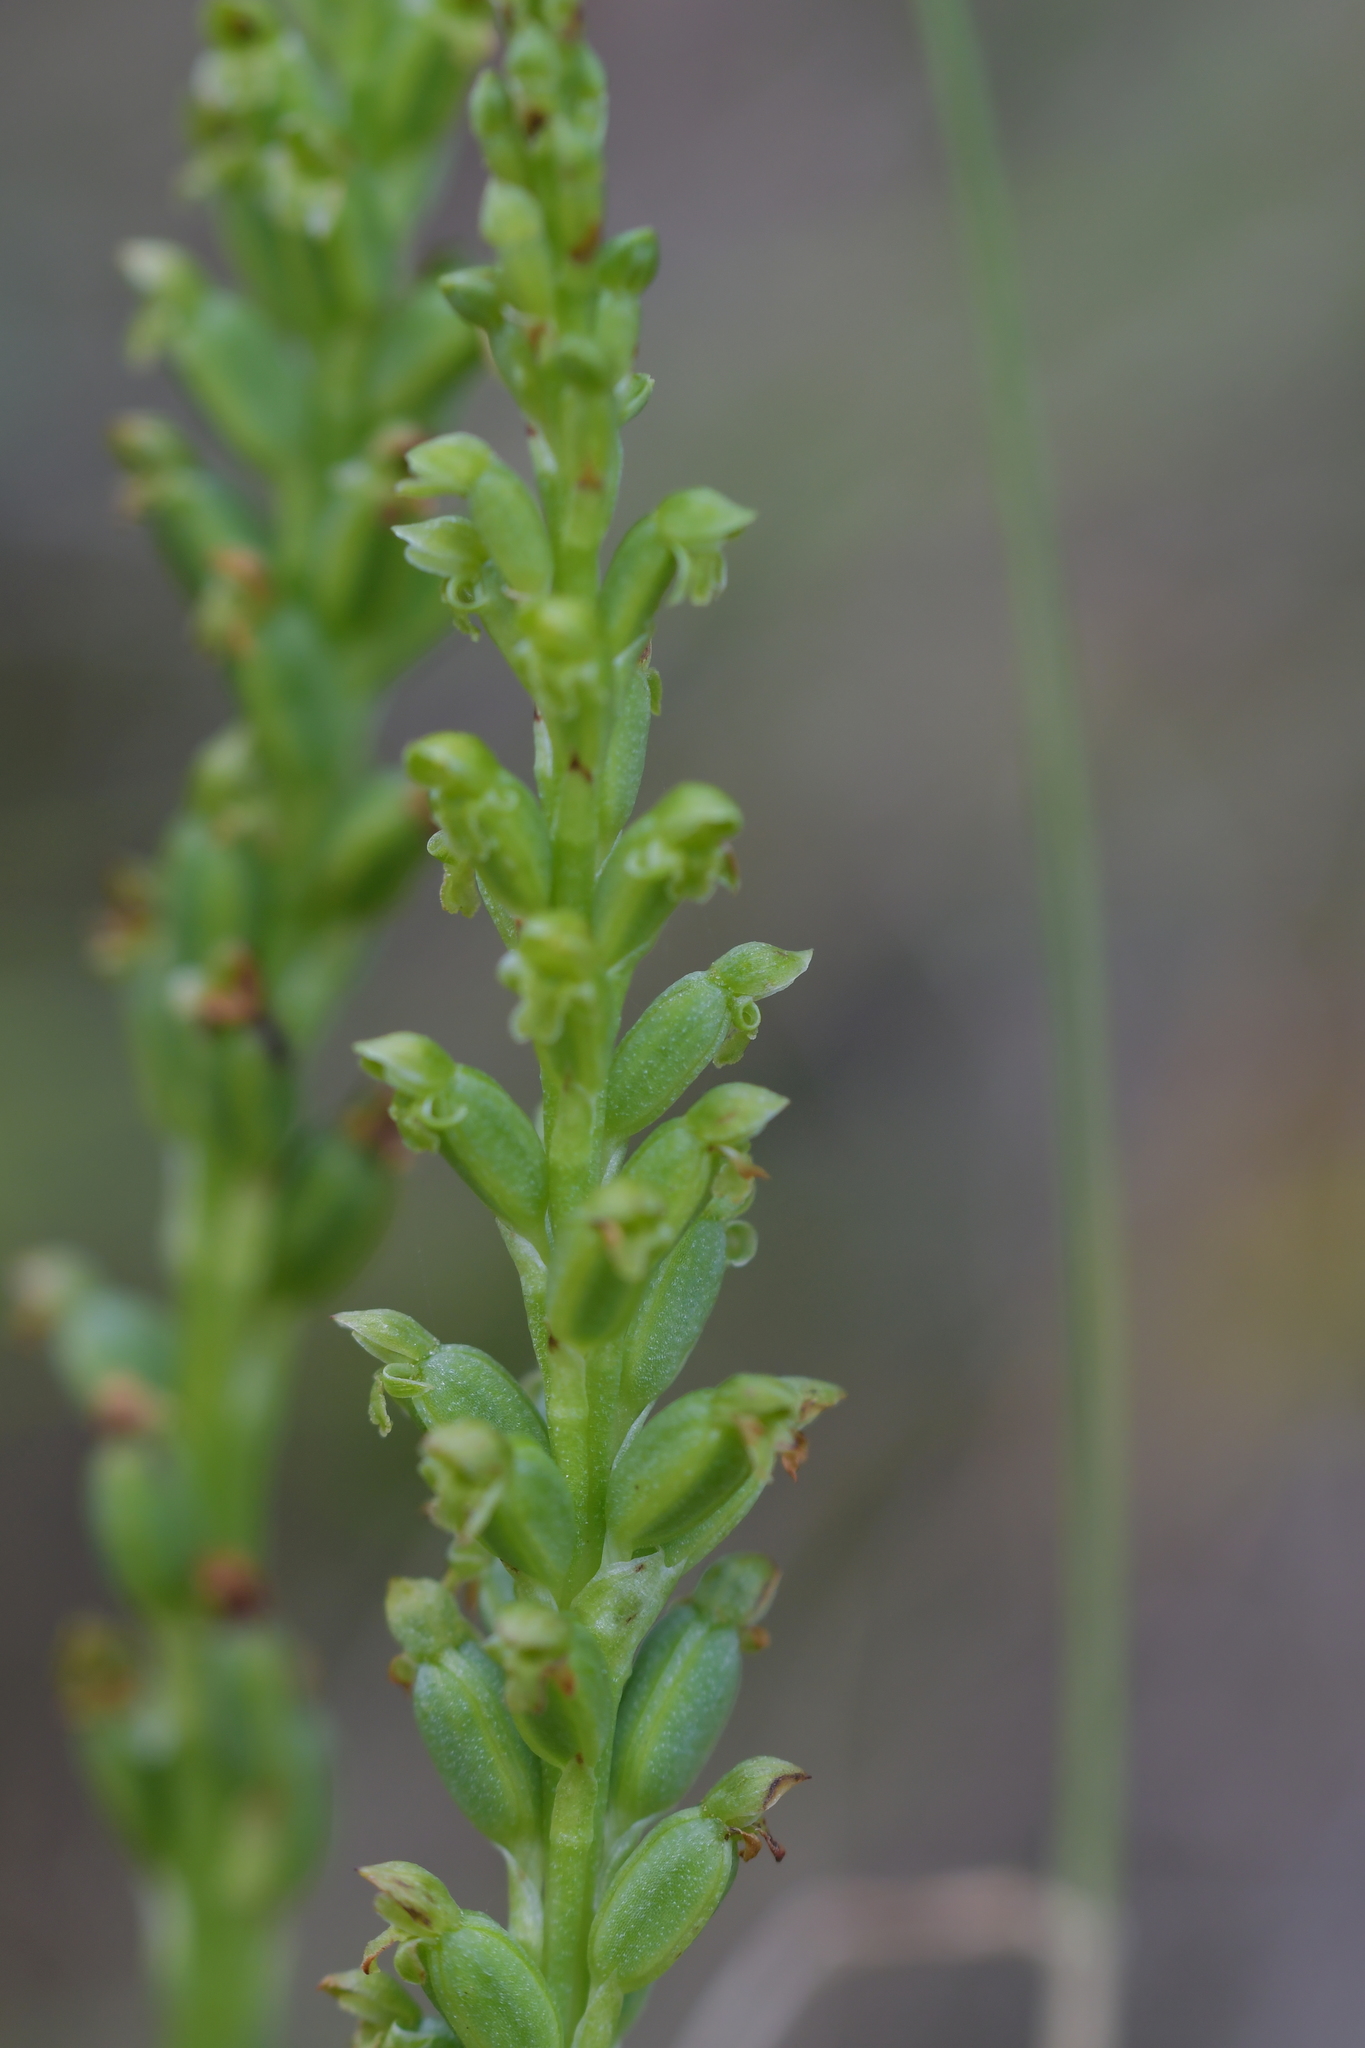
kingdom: Plantae
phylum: Tracheophyta
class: Liliopsida
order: Asparagales
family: Orchidaceae
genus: Microtis
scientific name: Microtis unifolia
